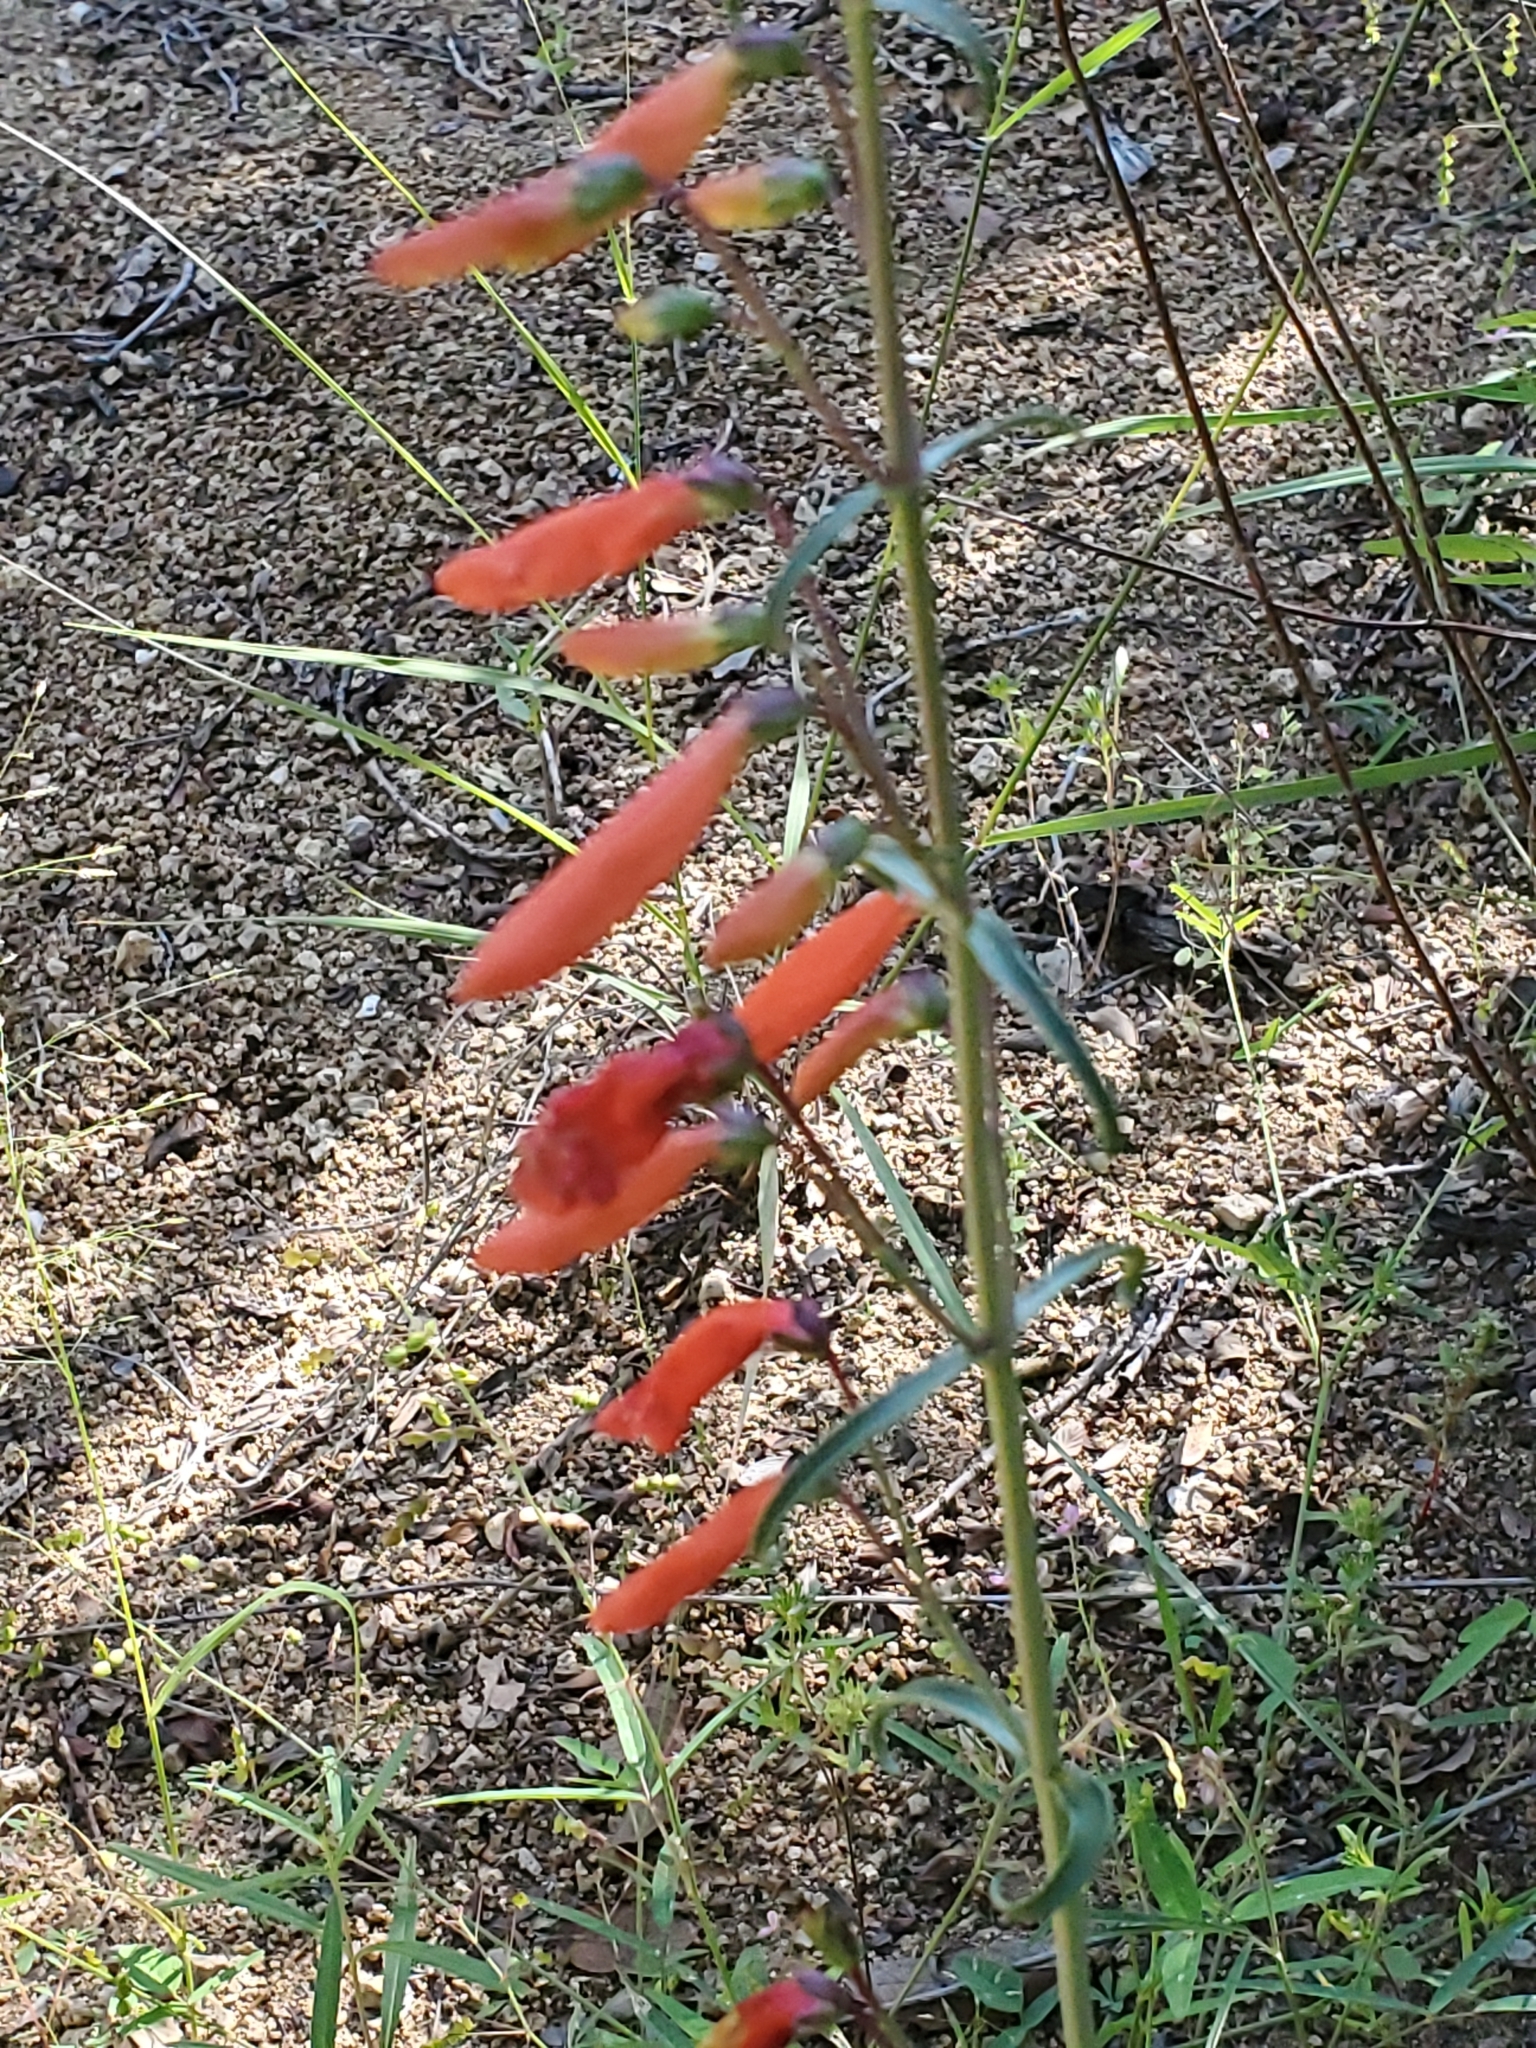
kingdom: Plantae
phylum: Tracheophyta
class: Magnoliopsida
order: Lamiales
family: Plantaginaceae
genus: Penstemon
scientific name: Penstemon barbatus
